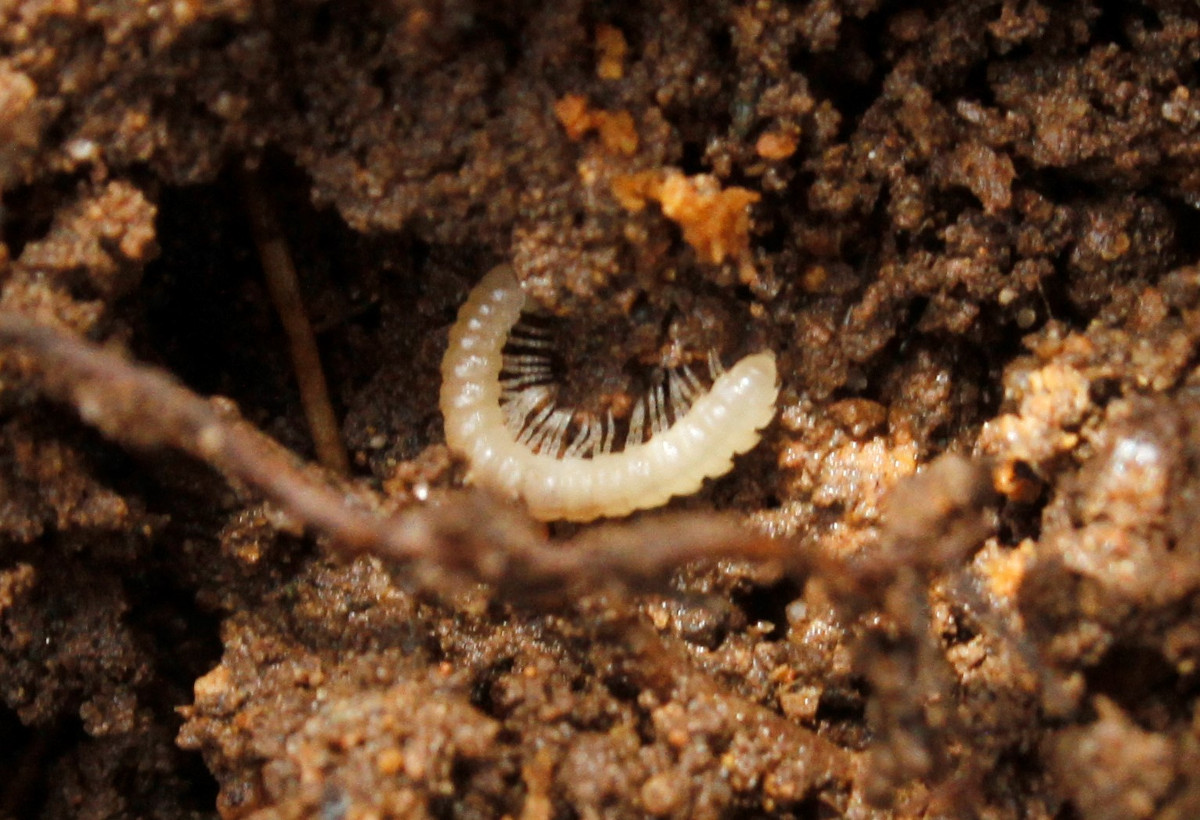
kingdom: Animalia
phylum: Arthropoda
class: Diplopoda
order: Polydesmida
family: Paradoxosomatidae
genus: Oxidus
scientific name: Oxidus gracilis
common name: Greenhouse millipede
